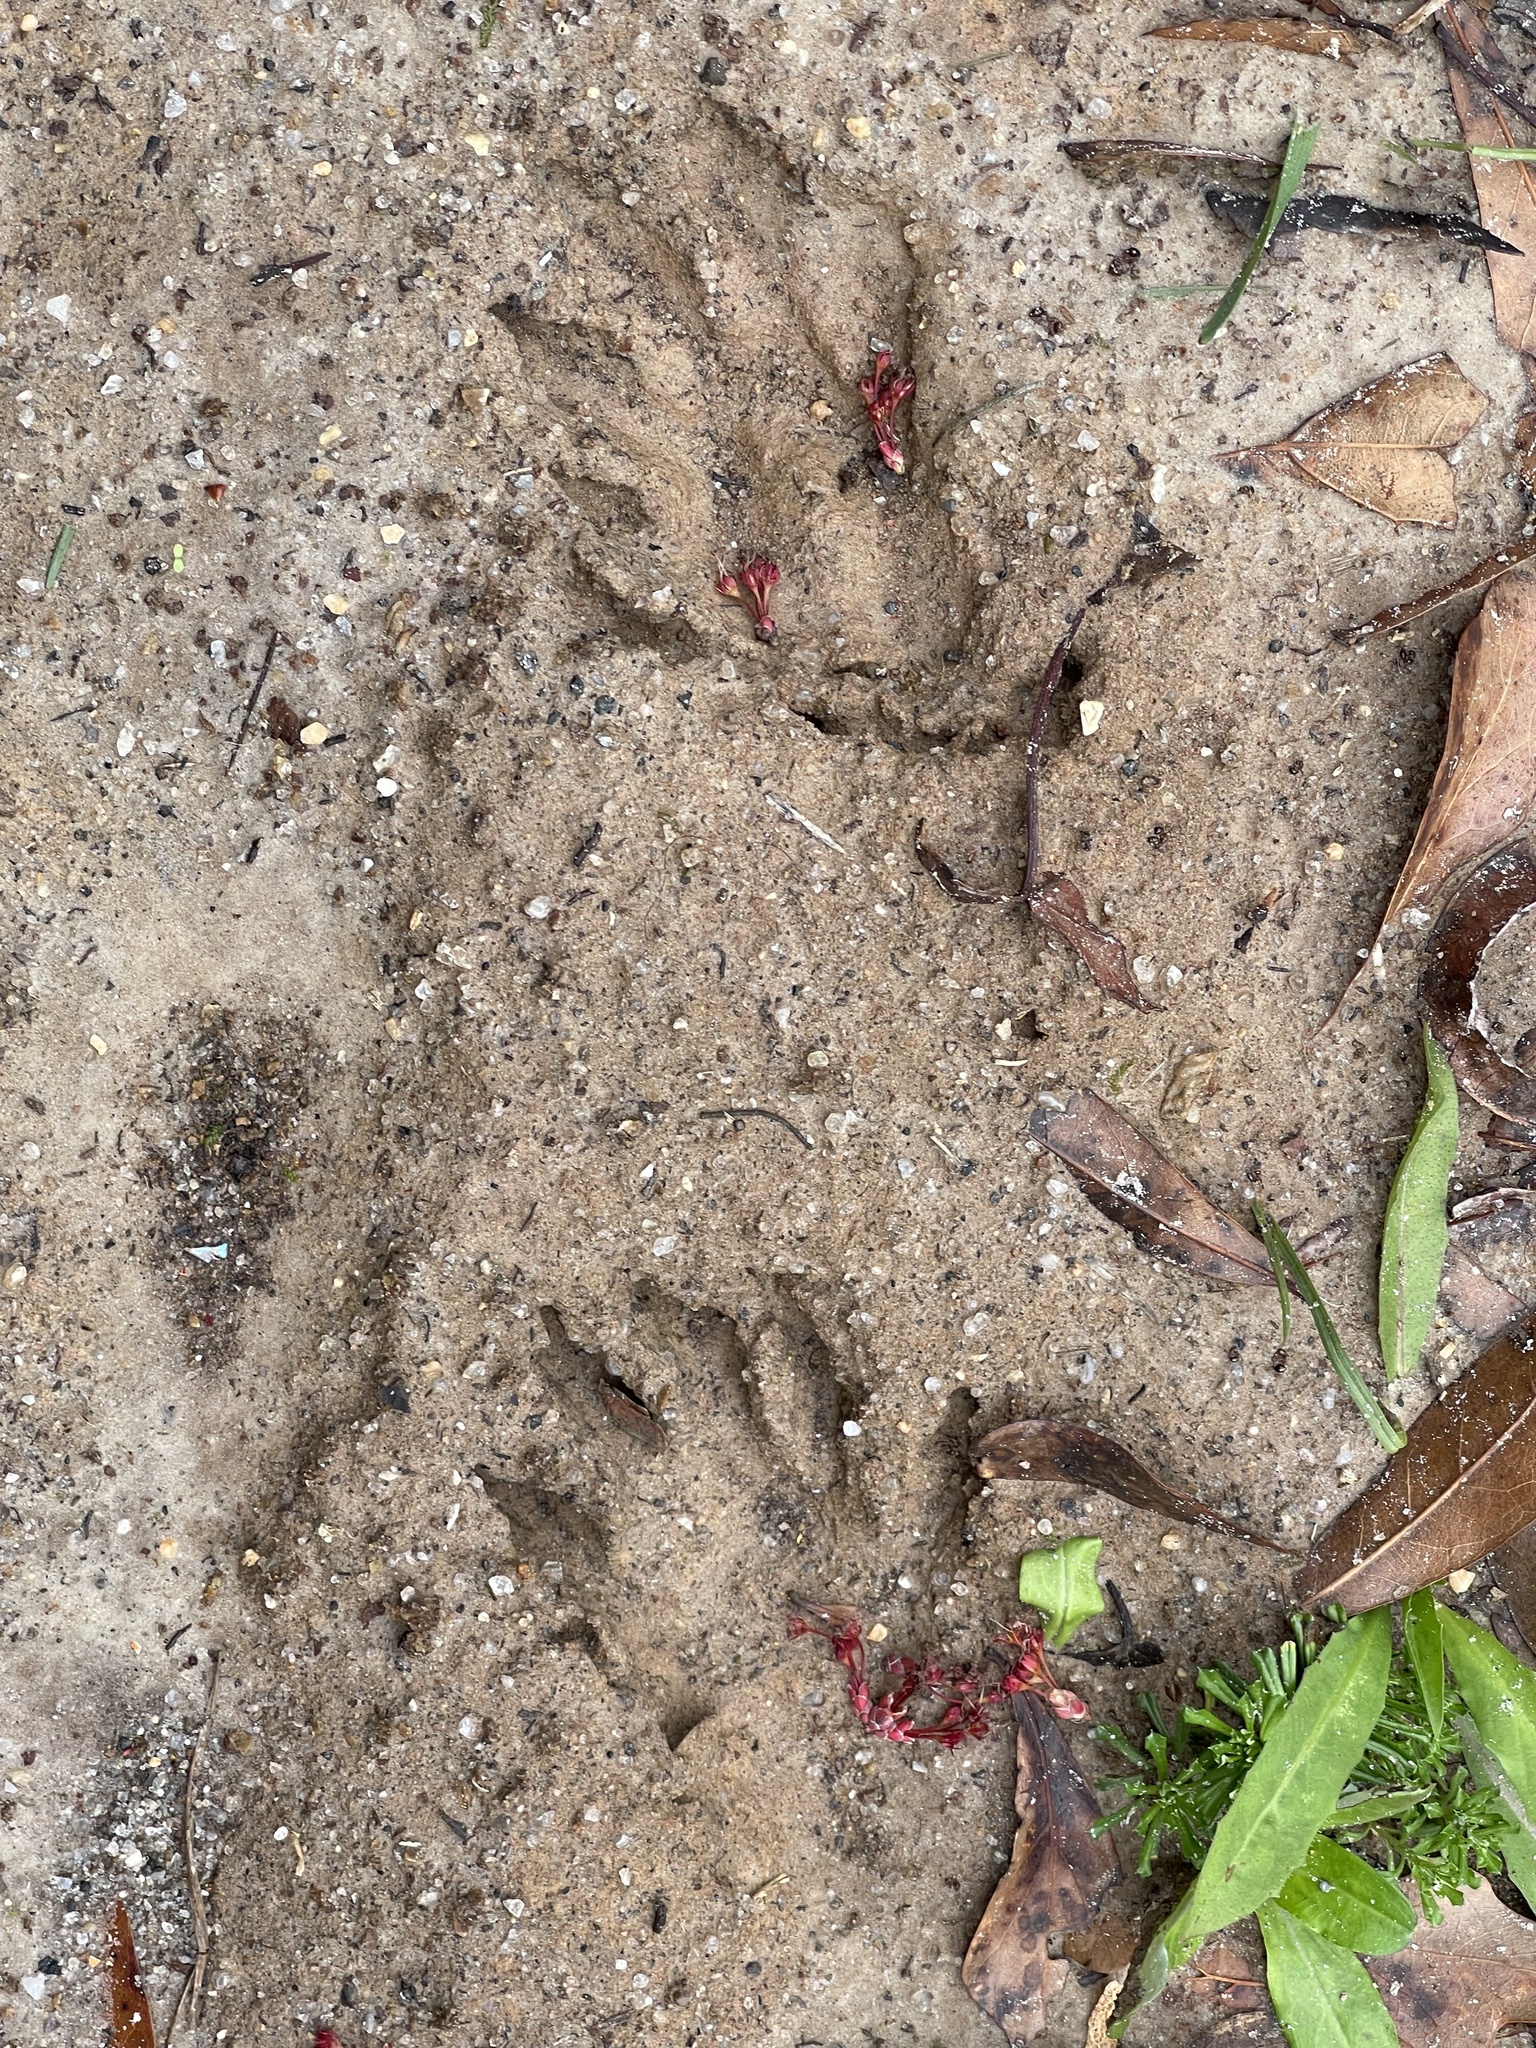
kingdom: Animalia
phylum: Chordata
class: Mammalia
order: Carnivora
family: Procyonidae
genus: Procyon
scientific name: Procyon lotor
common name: Raccoon
